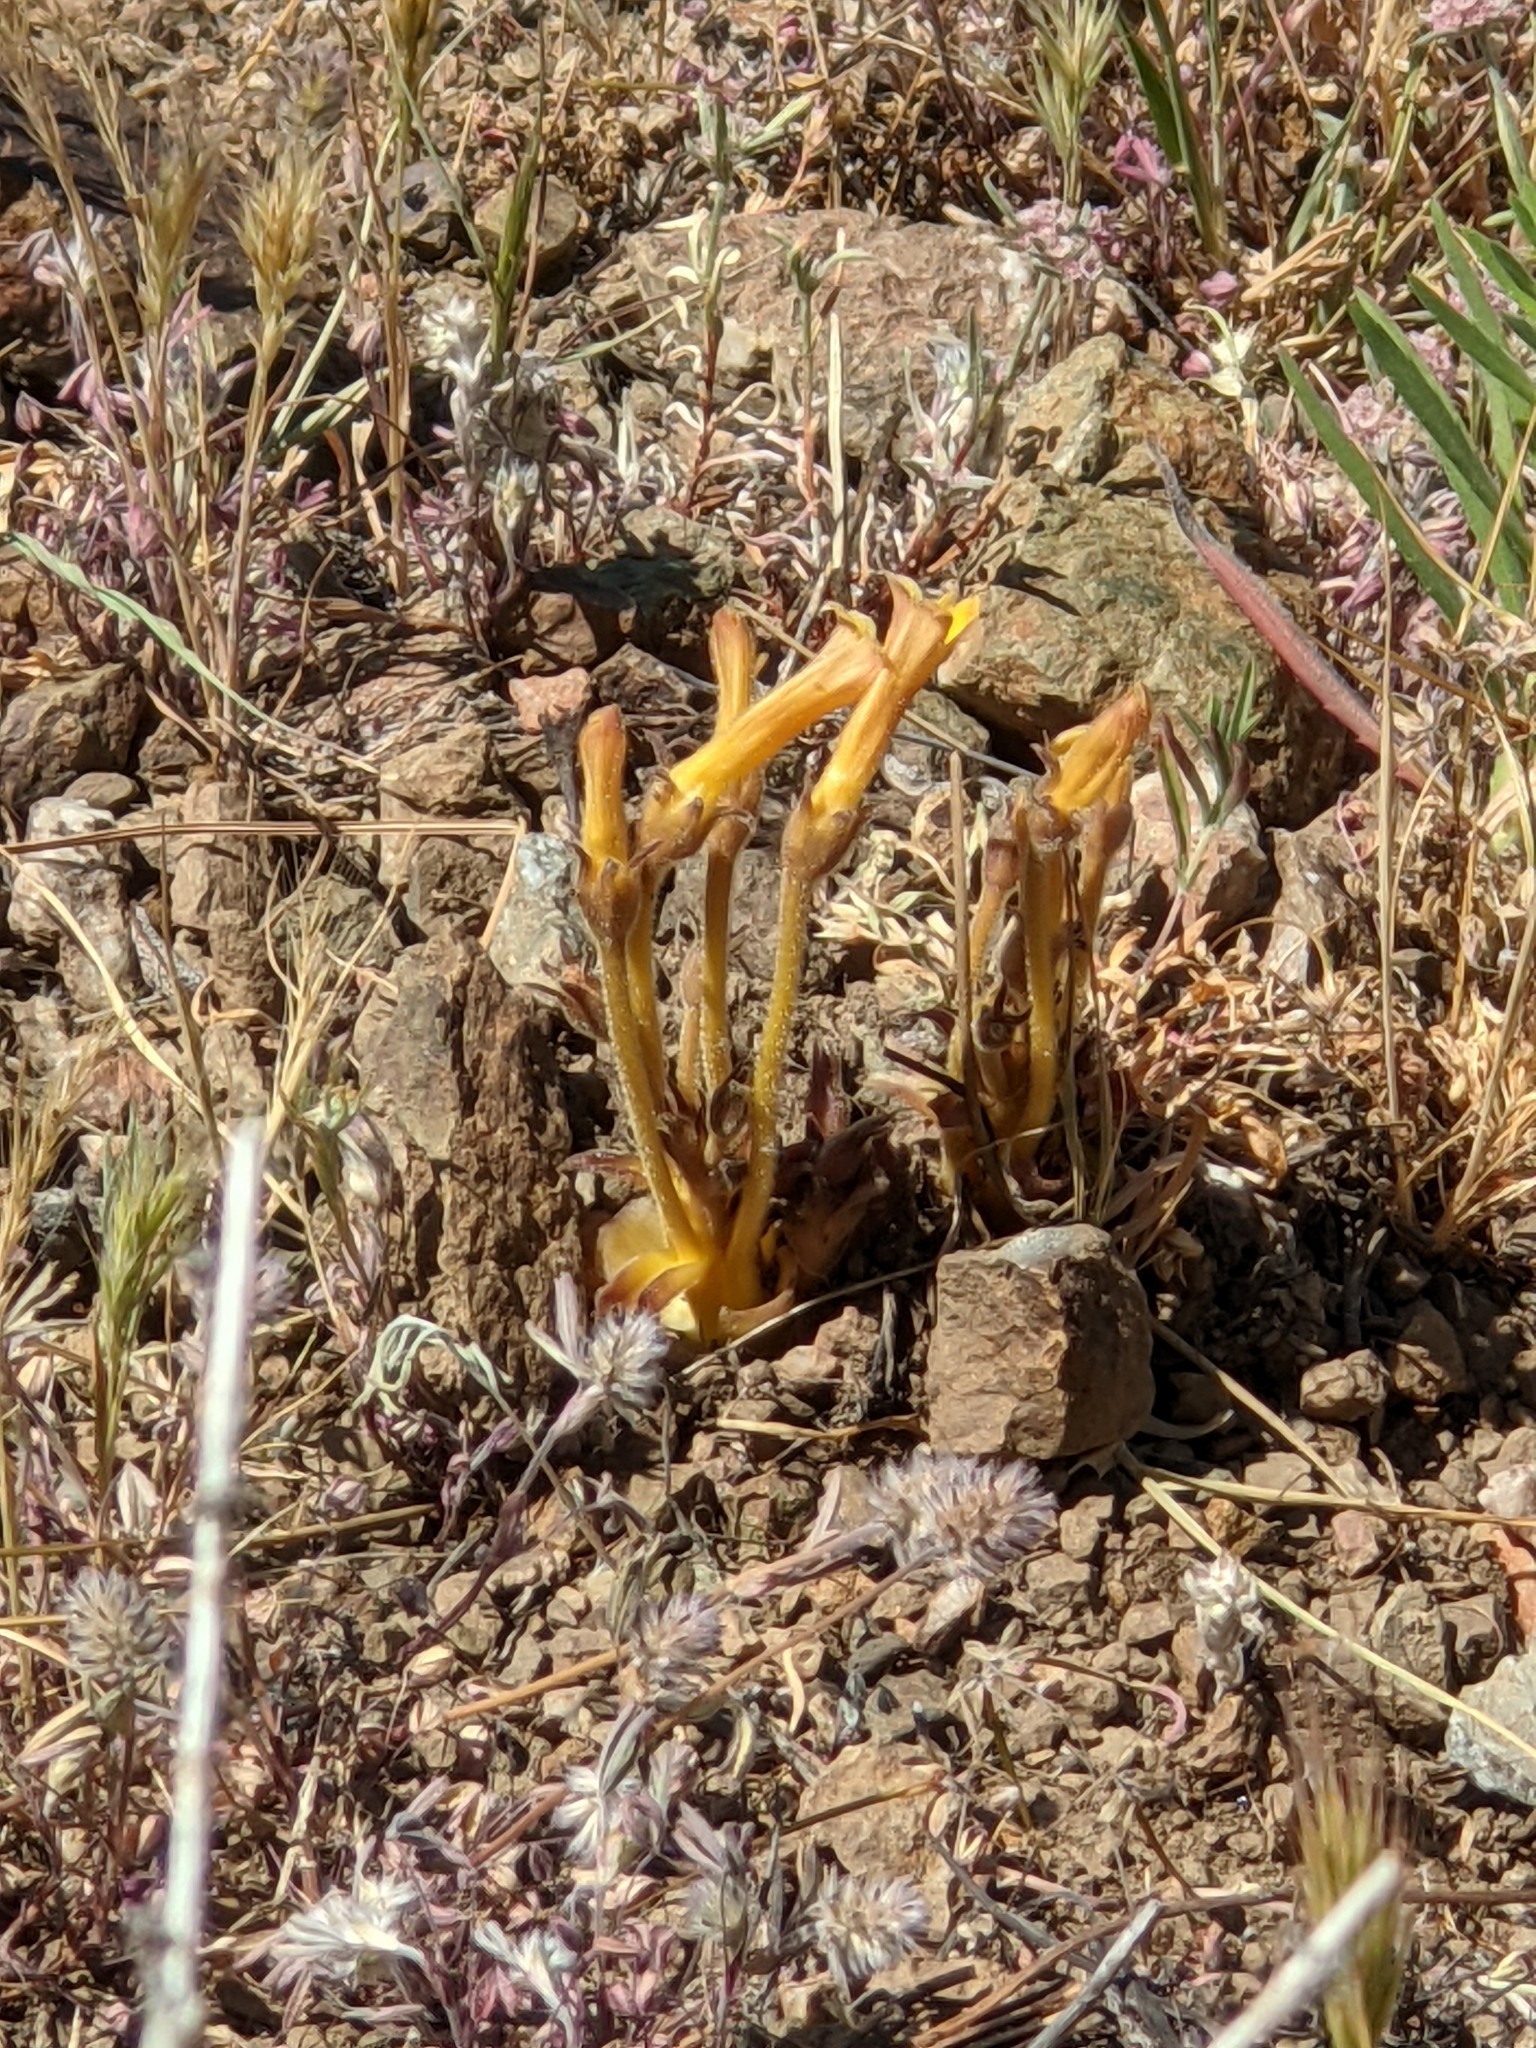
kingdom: Plantae
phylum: Tracheophyta
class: Magnoliopsida
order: Lamiales
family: Orobanchaceae
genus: Aphyllon
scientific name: Aphyllon franciscanum
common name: San francisco broomrape
